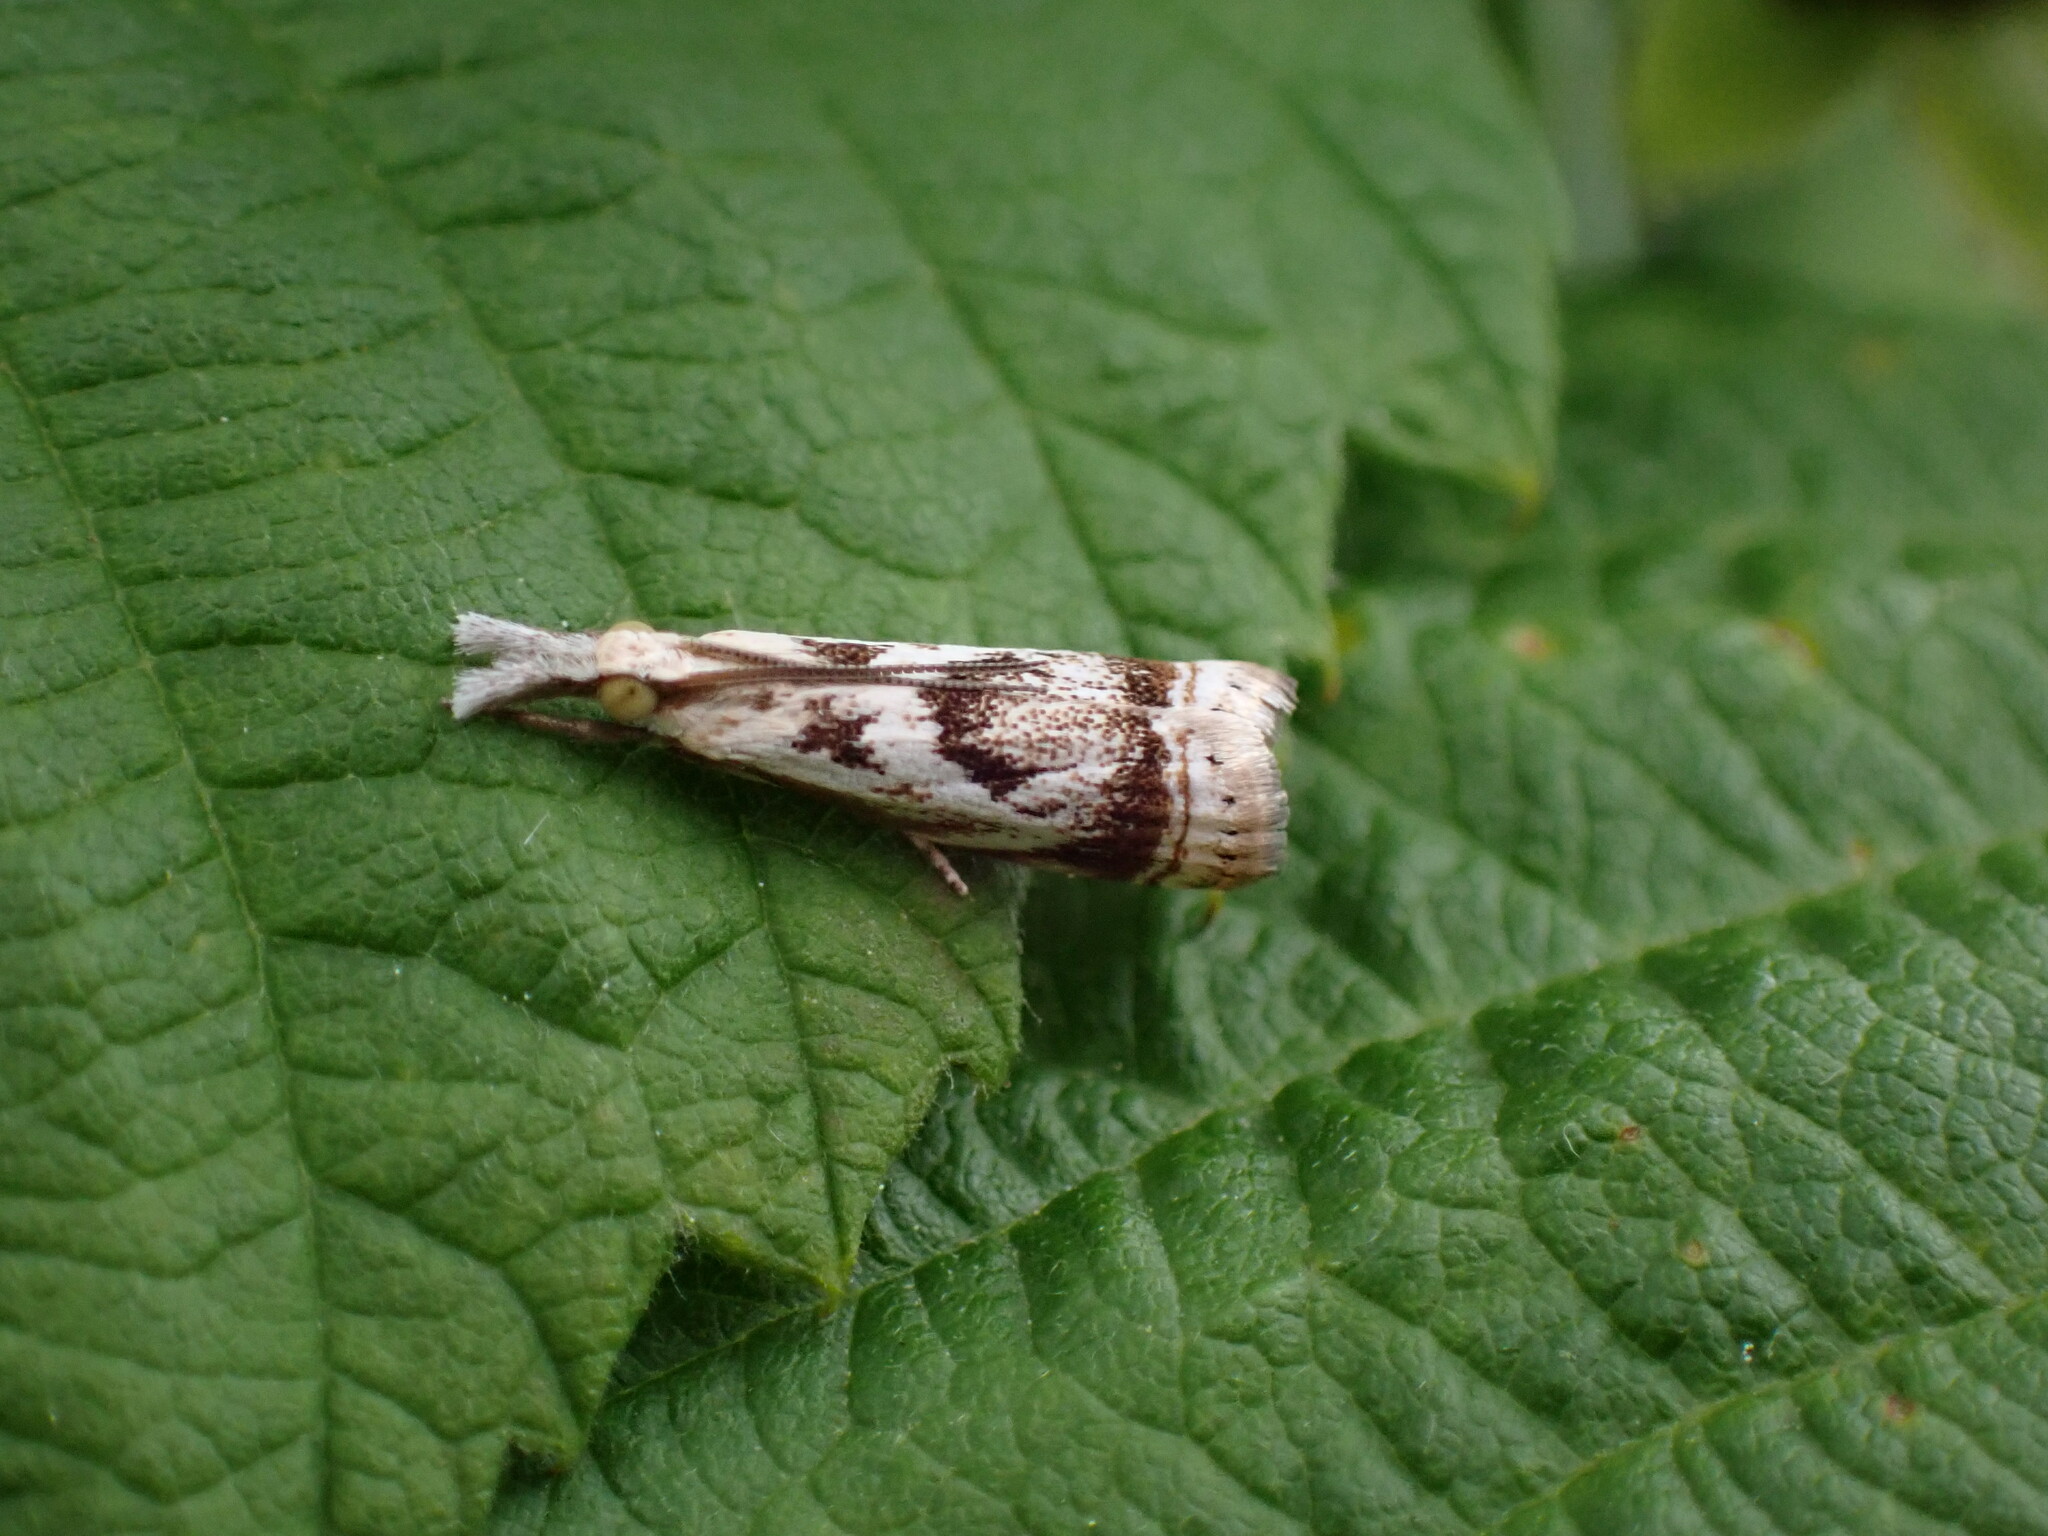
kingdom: Animalia
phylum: Arthropoda
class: Insecta
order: Lepidoptera
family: Crambidae
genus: Microcrambus
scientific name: Microcrambus elegans
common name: Elegant grass-veneer
